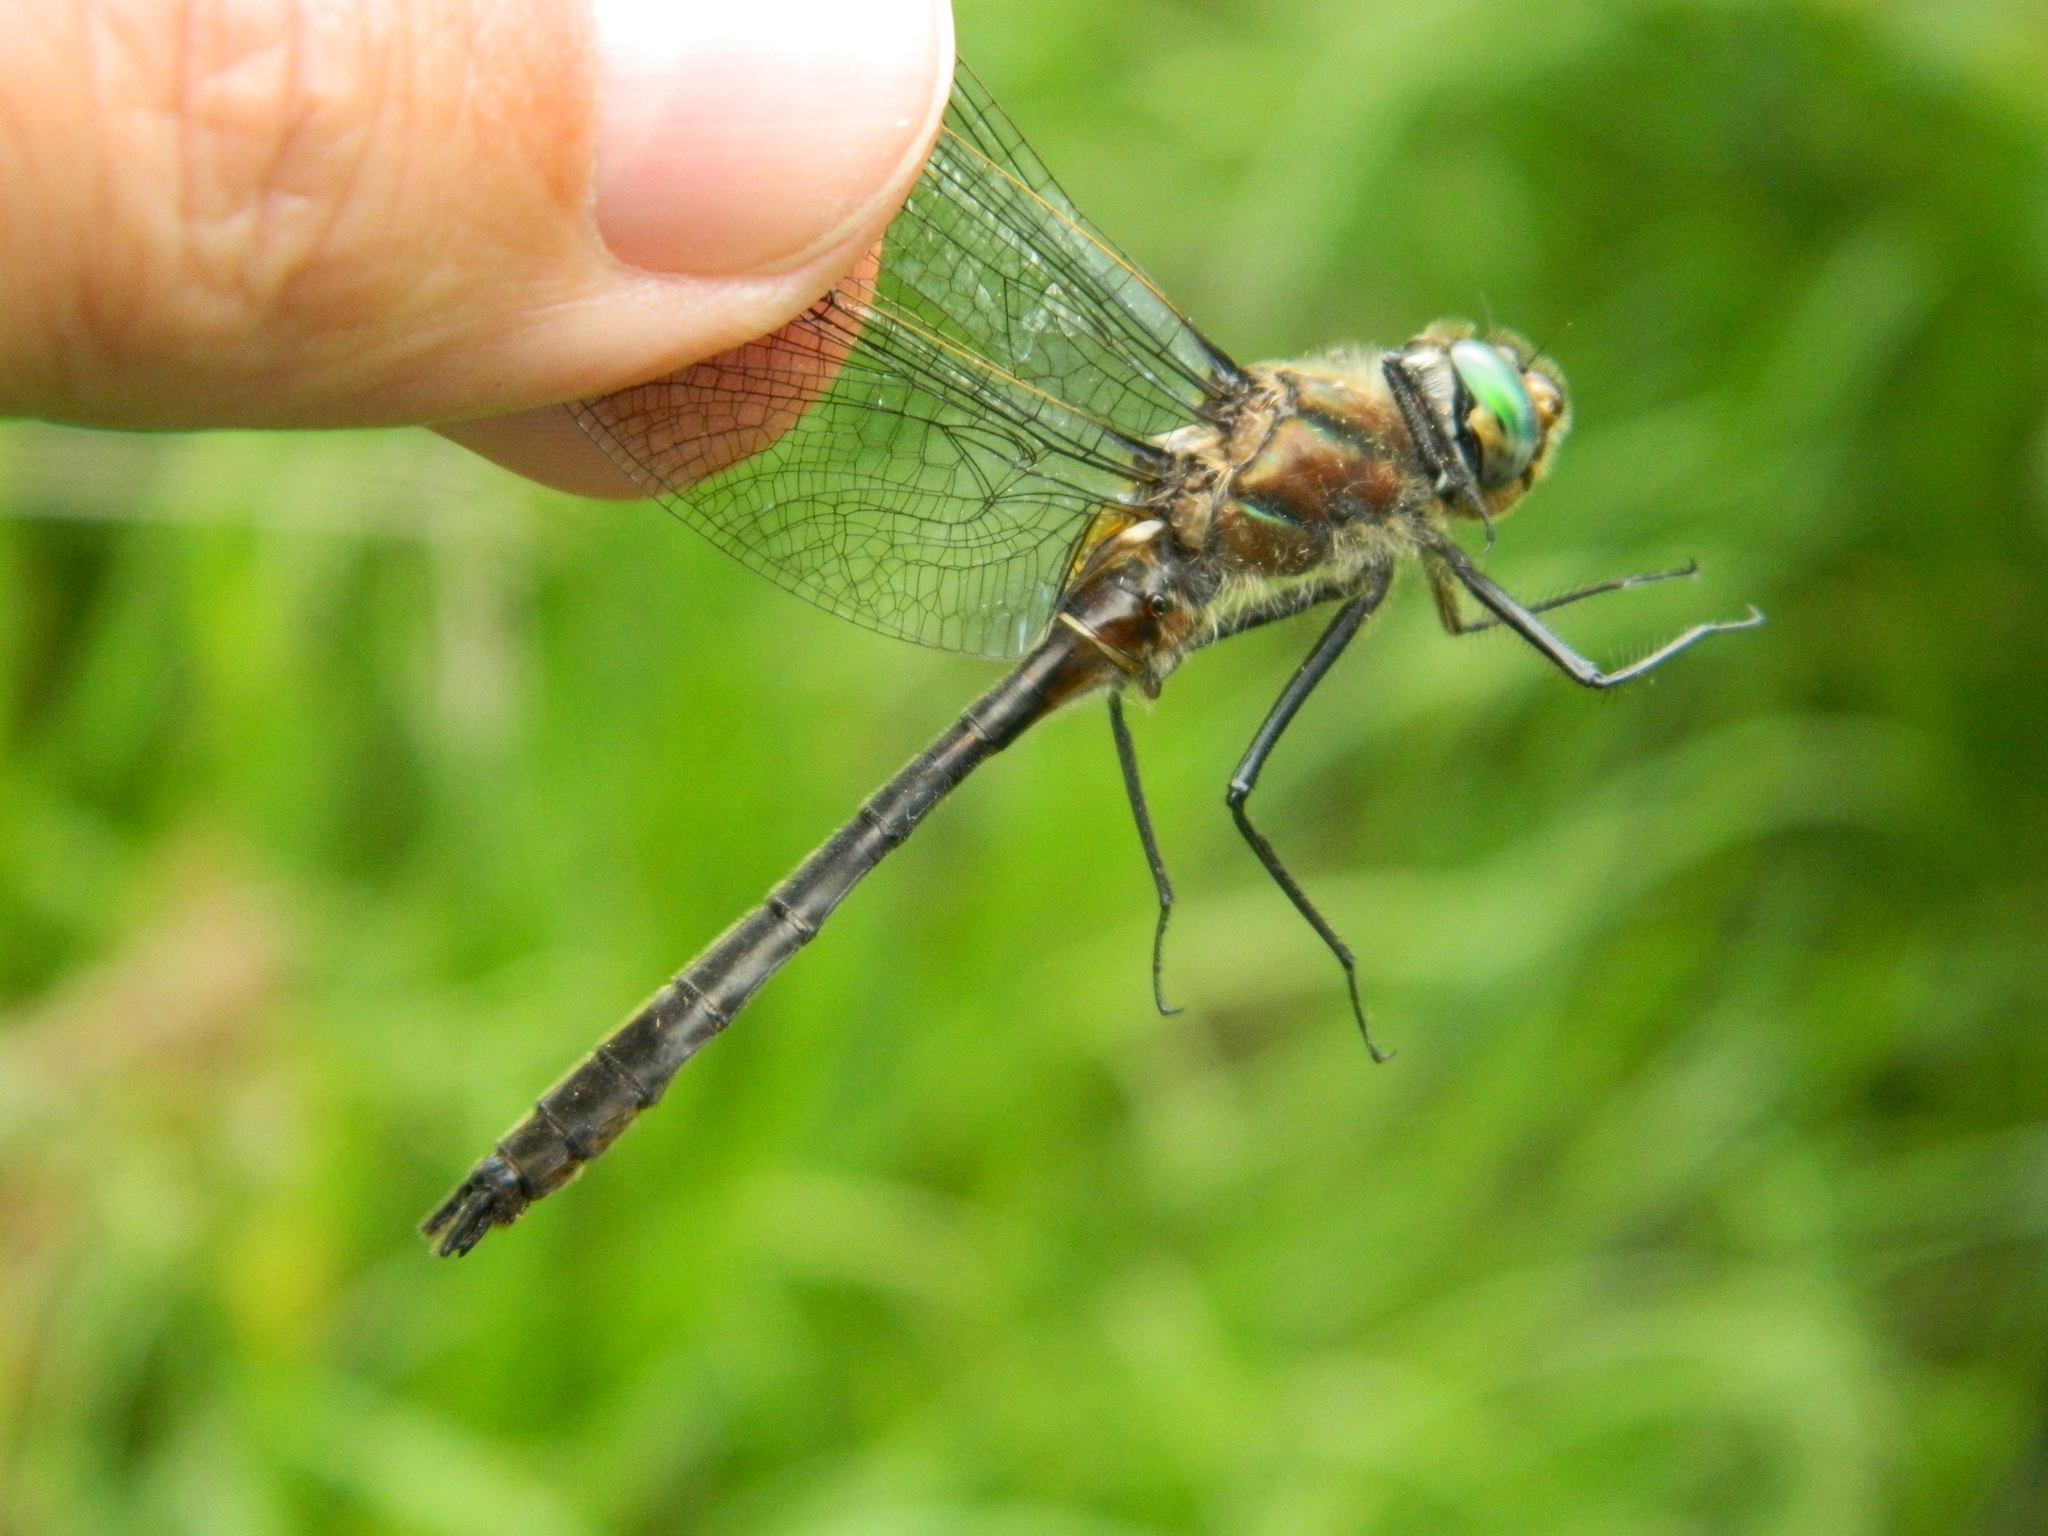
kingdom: Animalia
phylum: Arthropoda
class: Insecta
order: Odonata
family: Corduliidae
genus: Cordulia
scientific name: Cordulia shurtleffii
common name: American emerald
